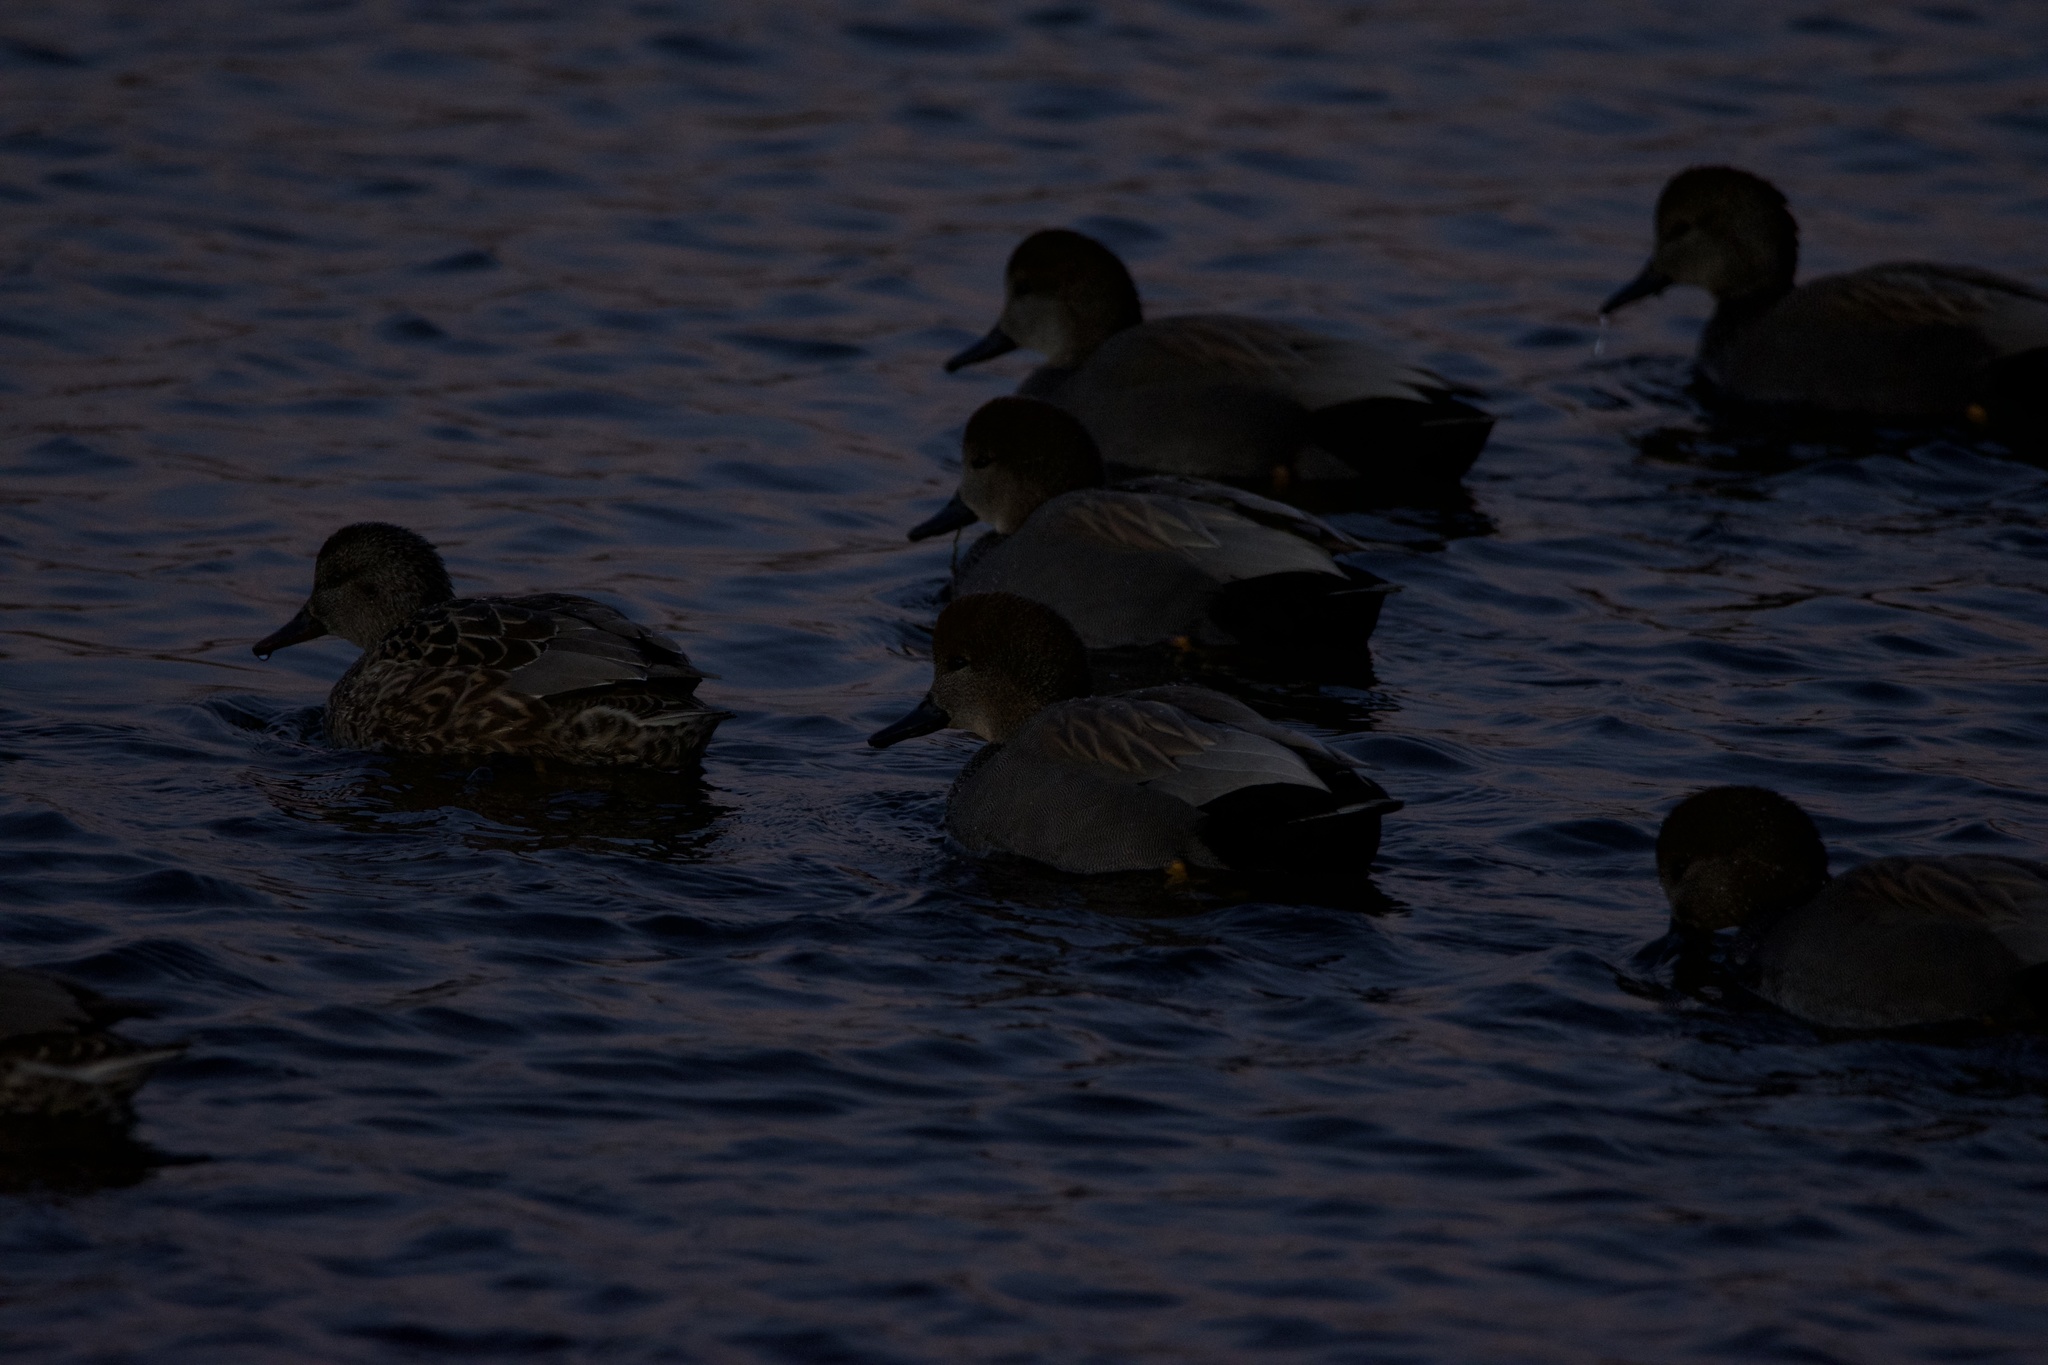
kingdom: Animalia
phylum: Chordata
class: Aves
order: Anseriformes
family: Anatidae
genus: Mareca
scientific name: Mareca strepera
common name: Gadwall
